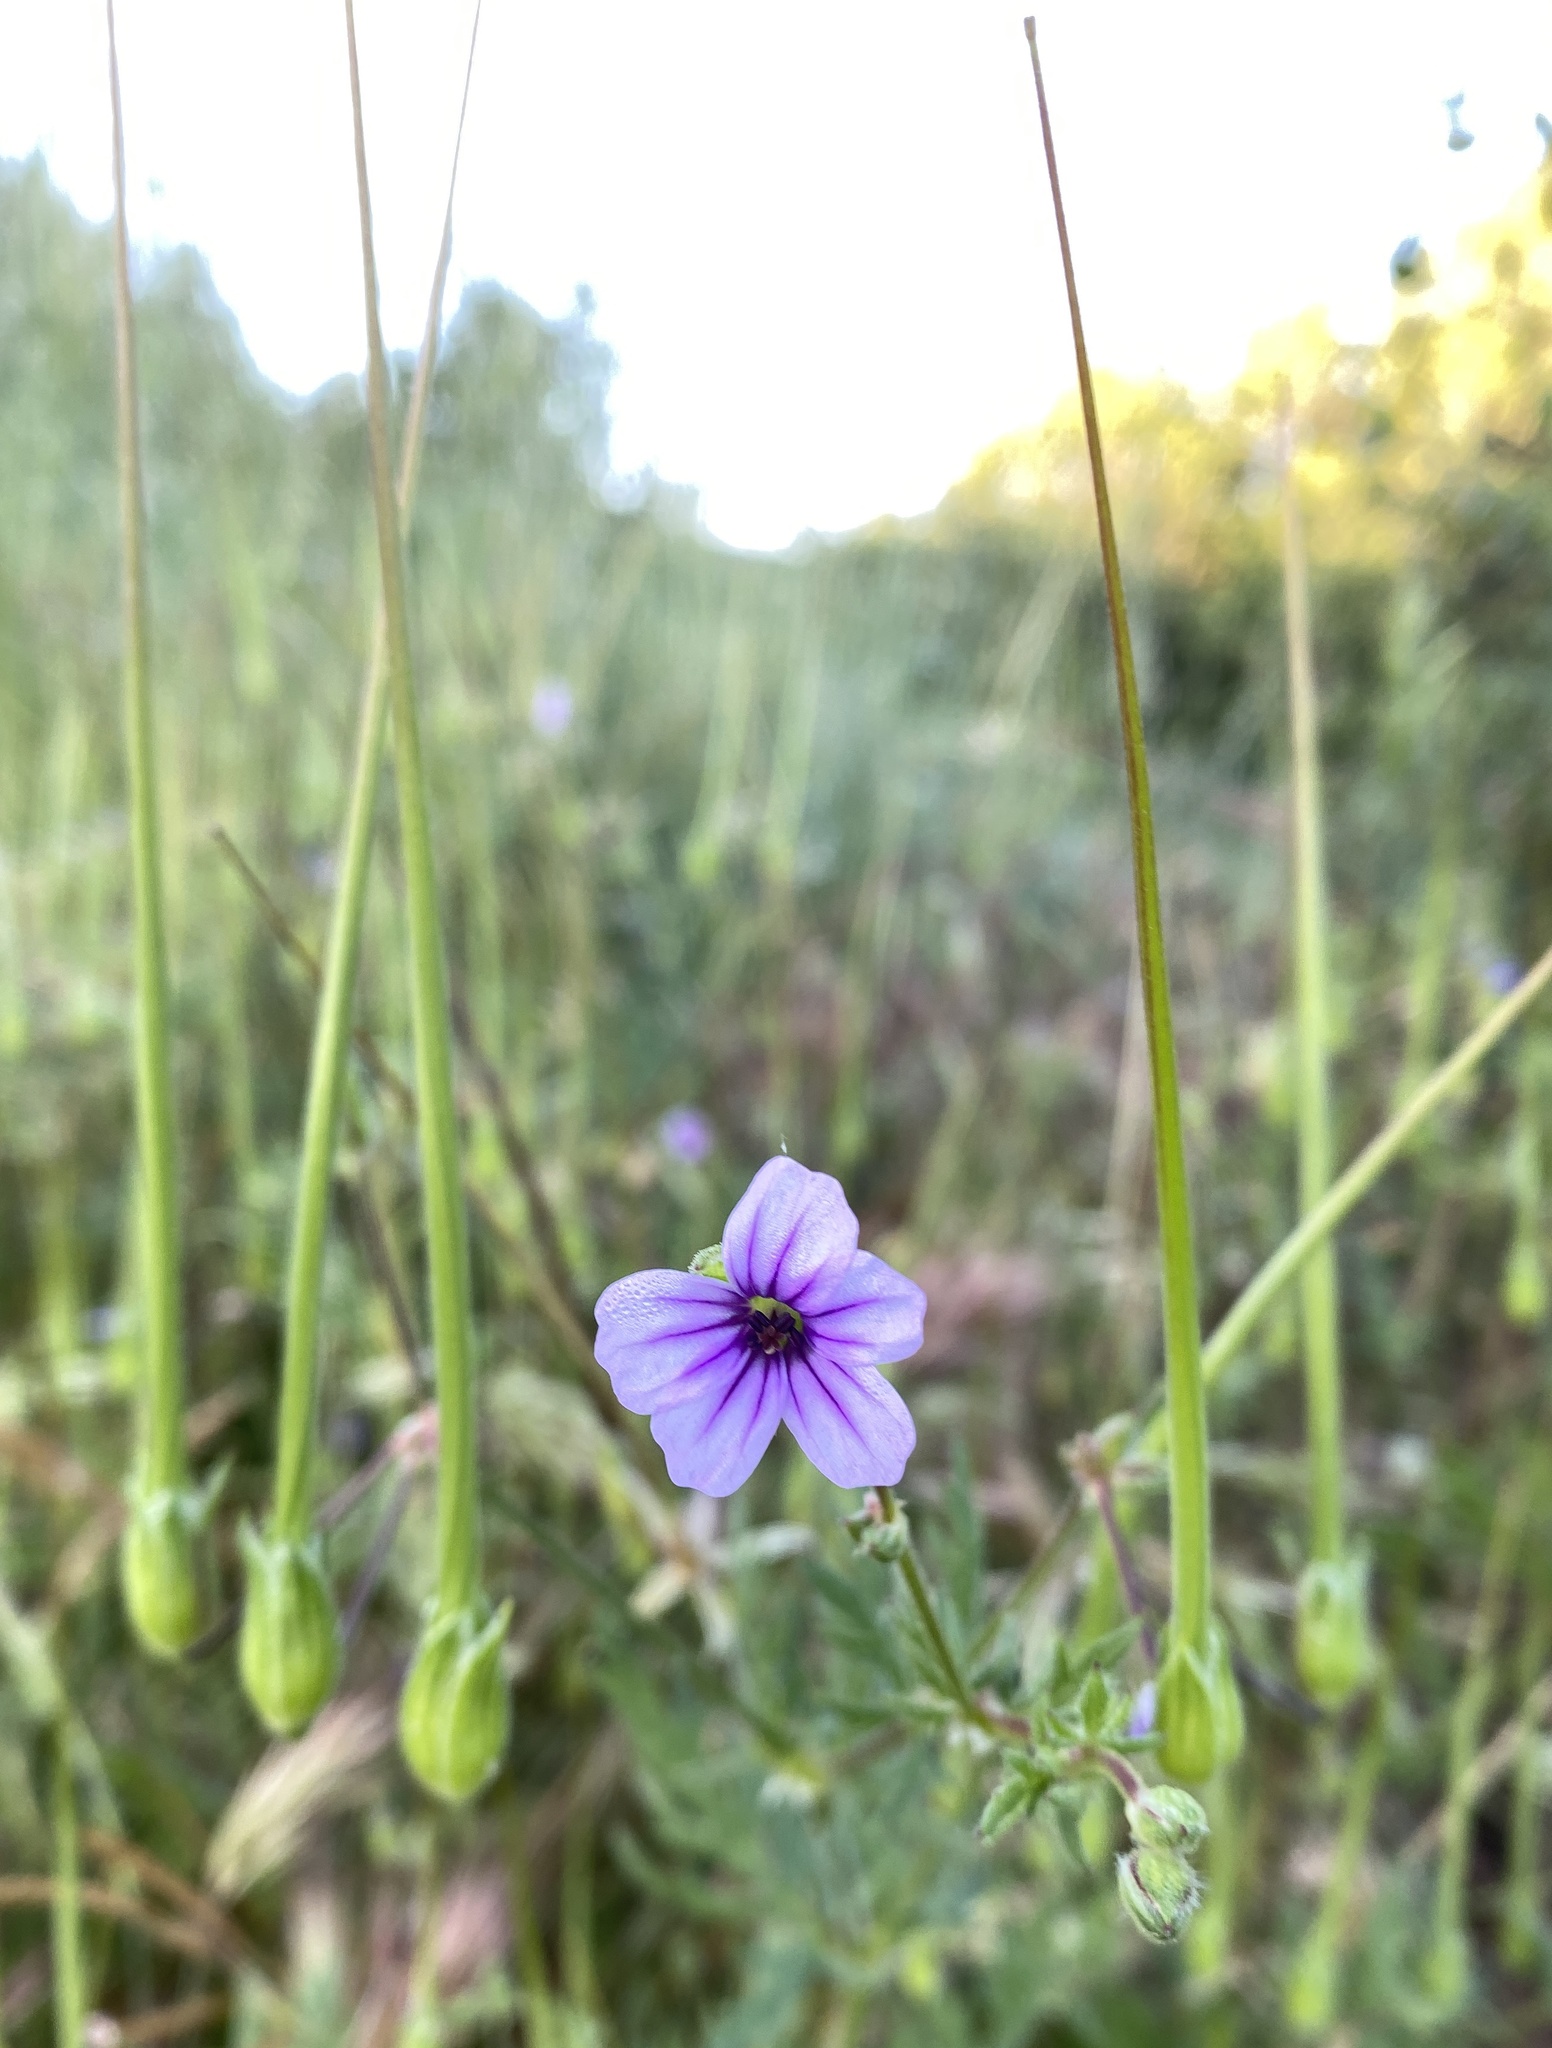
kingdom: Plantae
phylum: Tracheophyta
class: Magnoliopsida
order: Geraniales
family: Geraniaceae
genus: Erodium
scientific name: Erodium botrys
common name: Mediterranean stork's-bill
